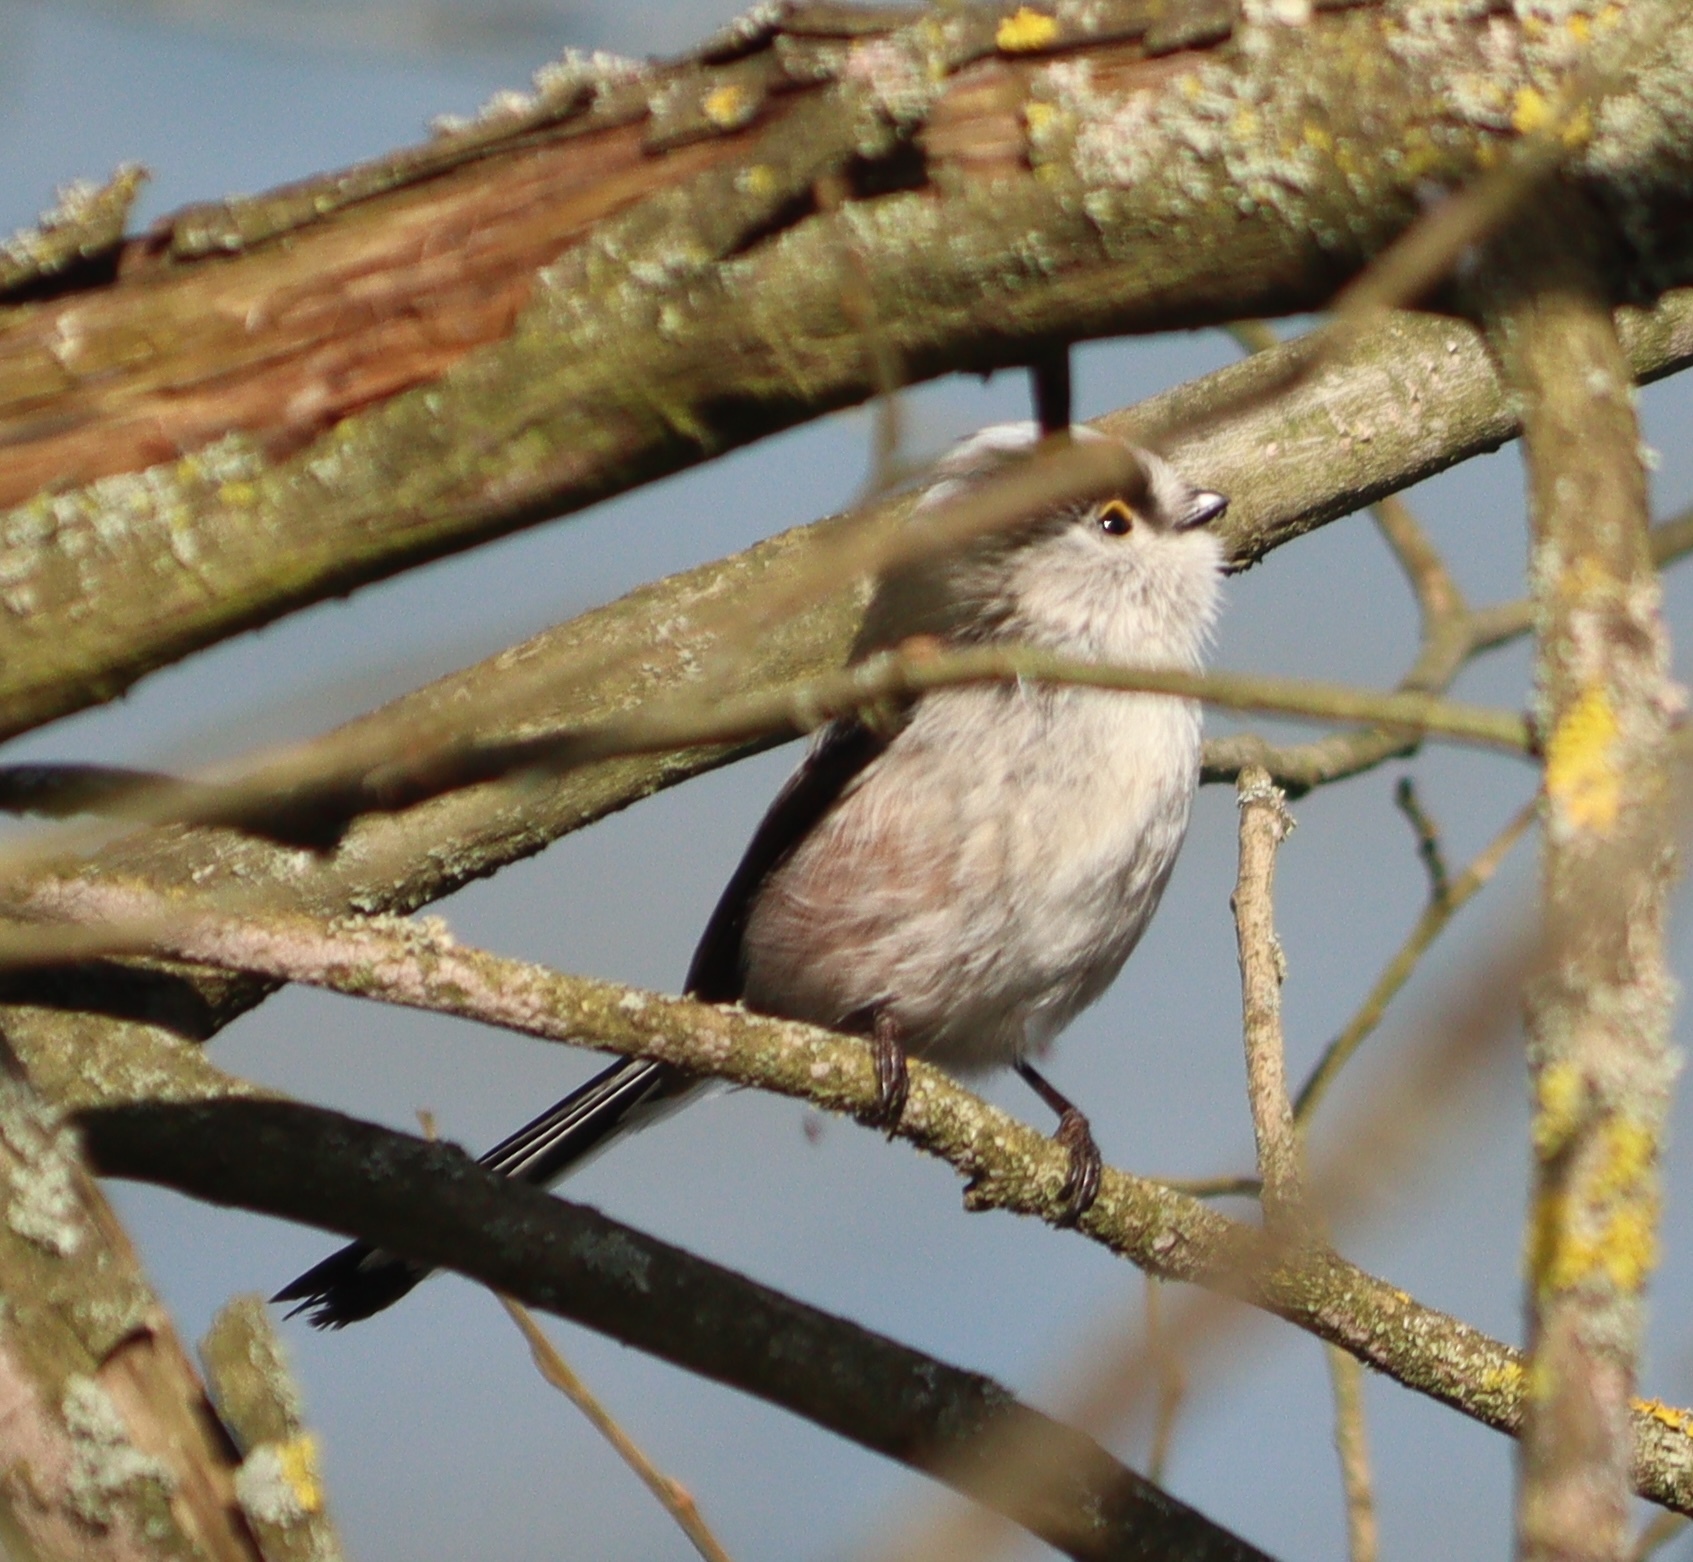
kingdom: Animalia
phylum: Chordata
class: Aves
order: Passeriformes
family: Aegithalidae
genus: Aegithalos
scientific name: Aegithalos caudatus
